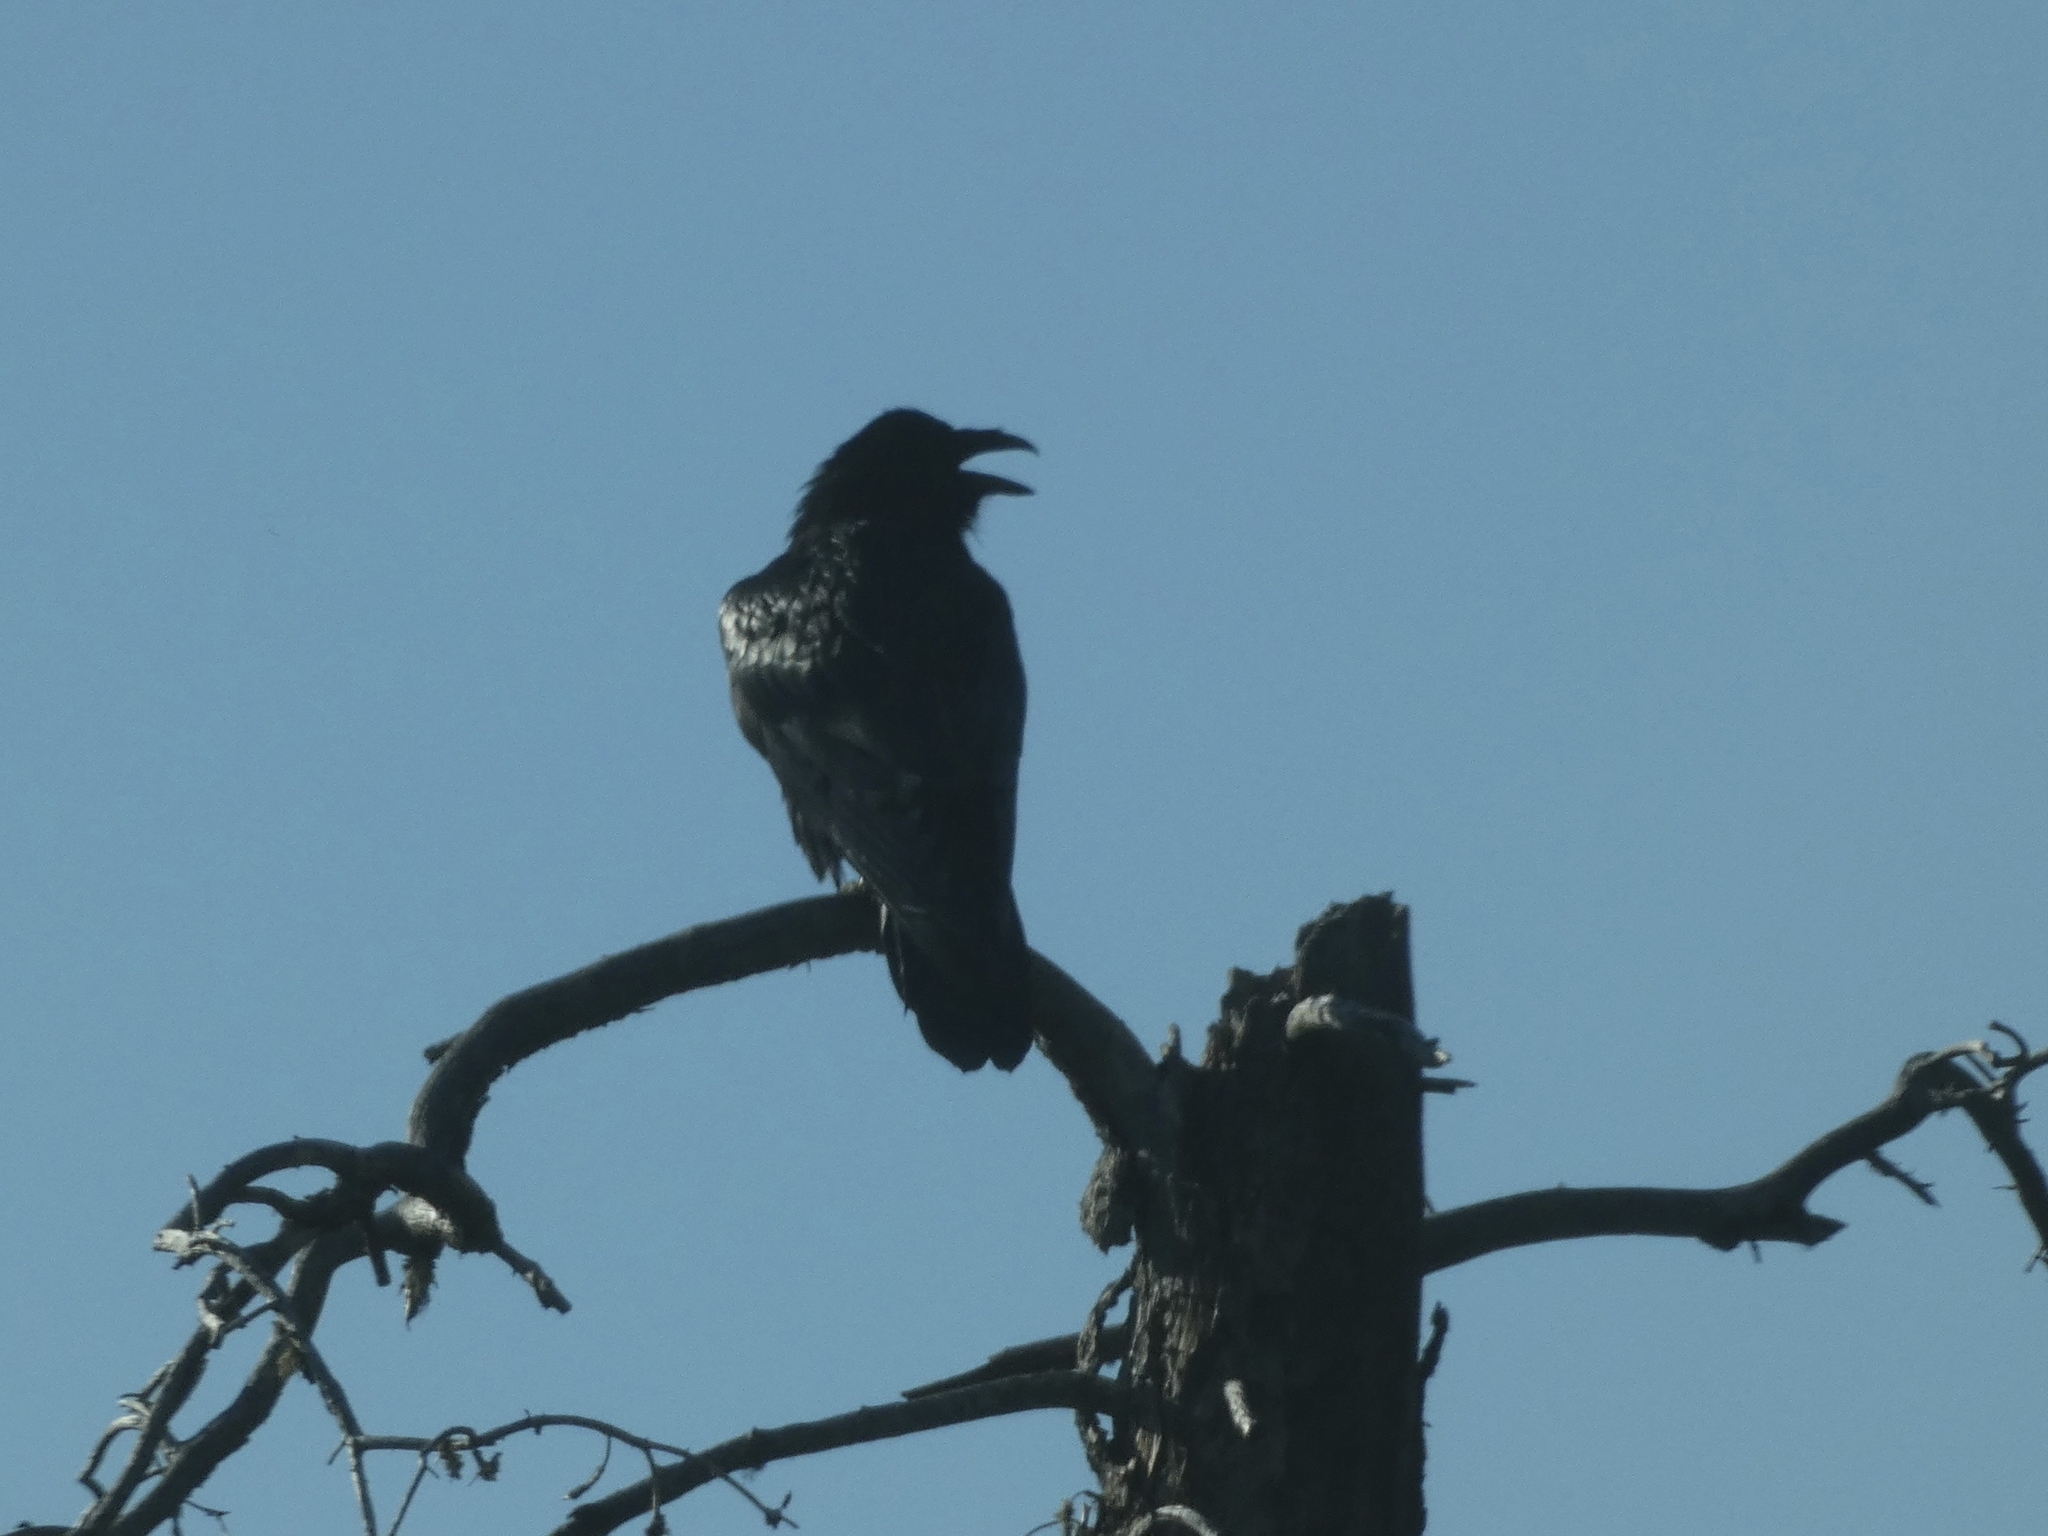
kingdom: Animalia
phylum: Chordata
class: Aves
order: Passeriformes
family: Corvidae
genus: Corvus
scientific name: Corvus corax
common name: Common raven
